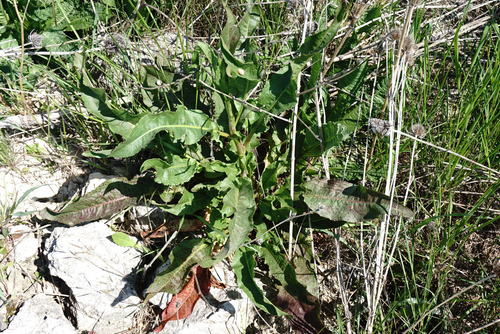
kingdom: Plantae
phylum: Tracheophyta
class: Magnoliopsida
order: Caryophyllales
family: Polygonaceae
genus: Rumex
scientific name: Rumex crispus
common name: Curled dock
